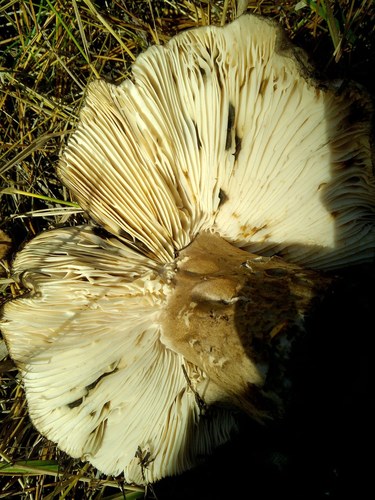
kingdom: Fungi
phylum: Basidiomycota
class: Agaricomycetes
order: Russulales
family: Russulaceae
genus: Russula
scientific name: Russula
